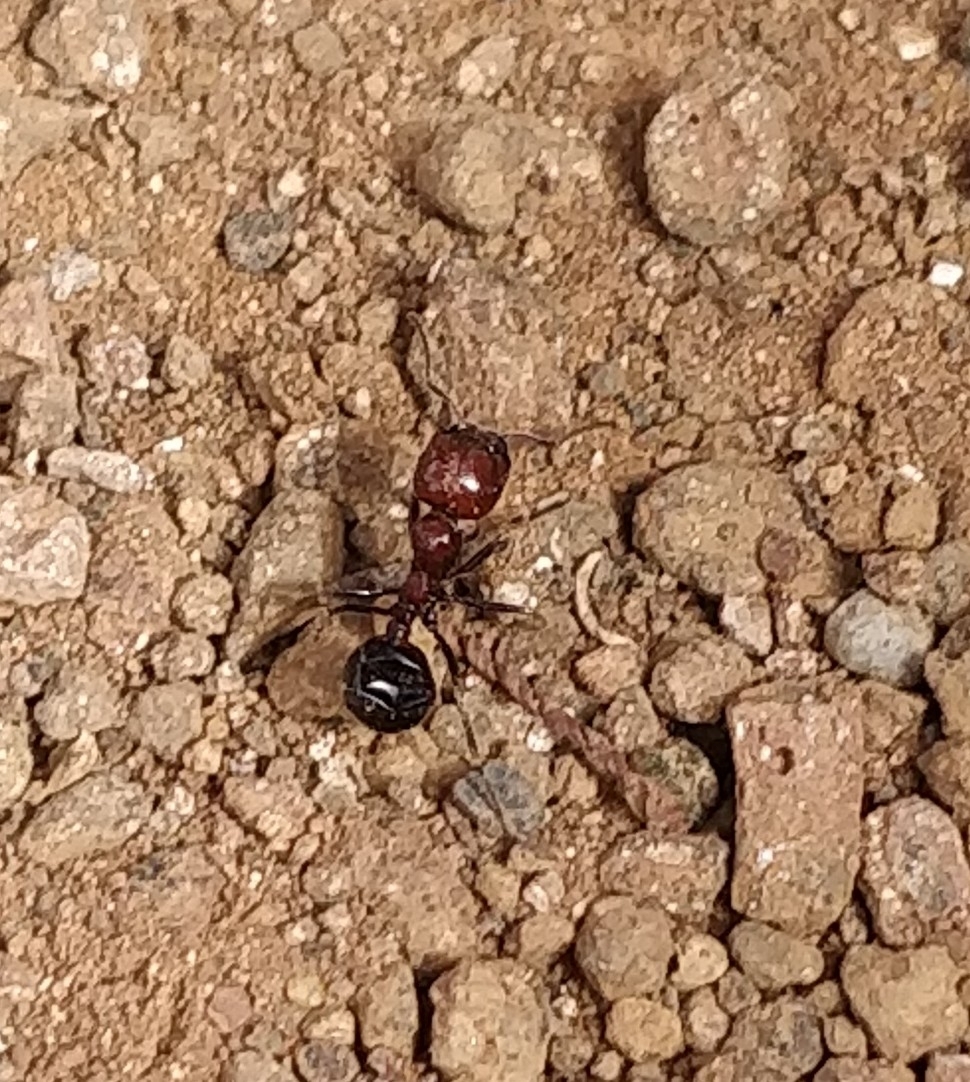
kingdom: Animalia
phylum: Arthropoda
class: Insecta
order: Hymenoptera
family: Formicidae
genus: Messor
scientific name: Messor minor
